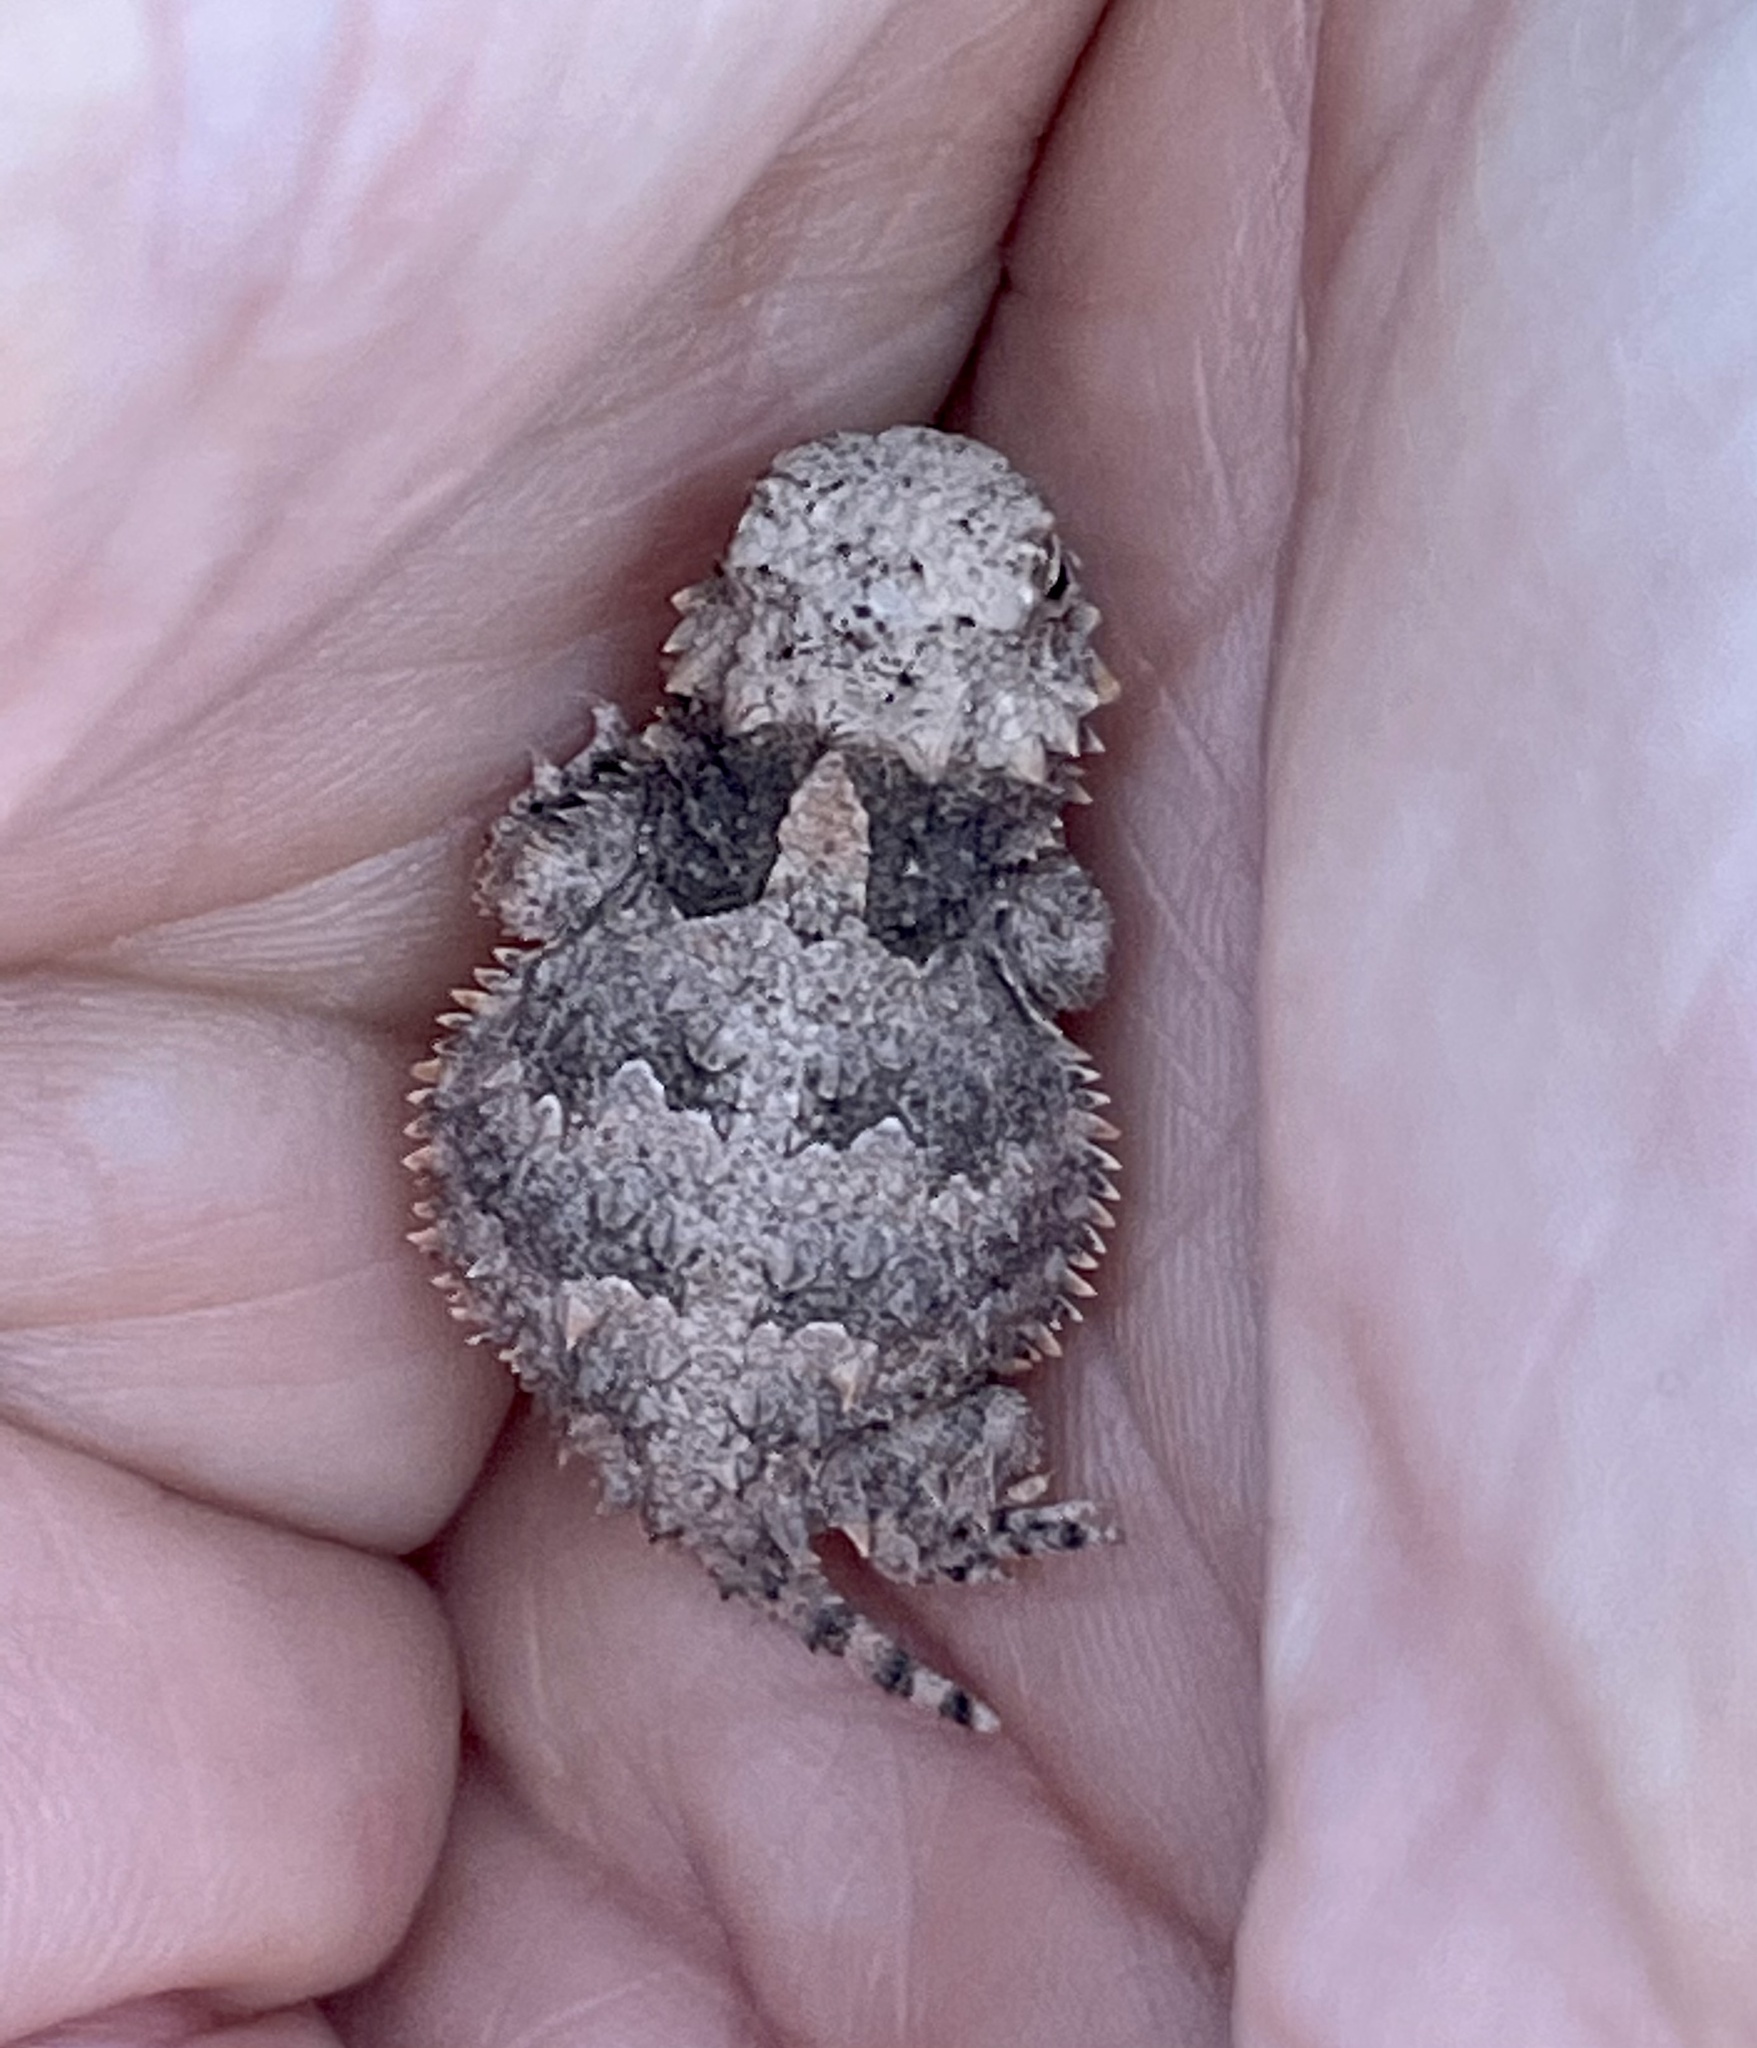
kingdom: Animalia
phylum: Chordata
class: Squamata
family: Phrynosomatidae
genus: Phrynosoma
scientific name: Phrynosoma blainvillii
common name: San diego horned lizard
